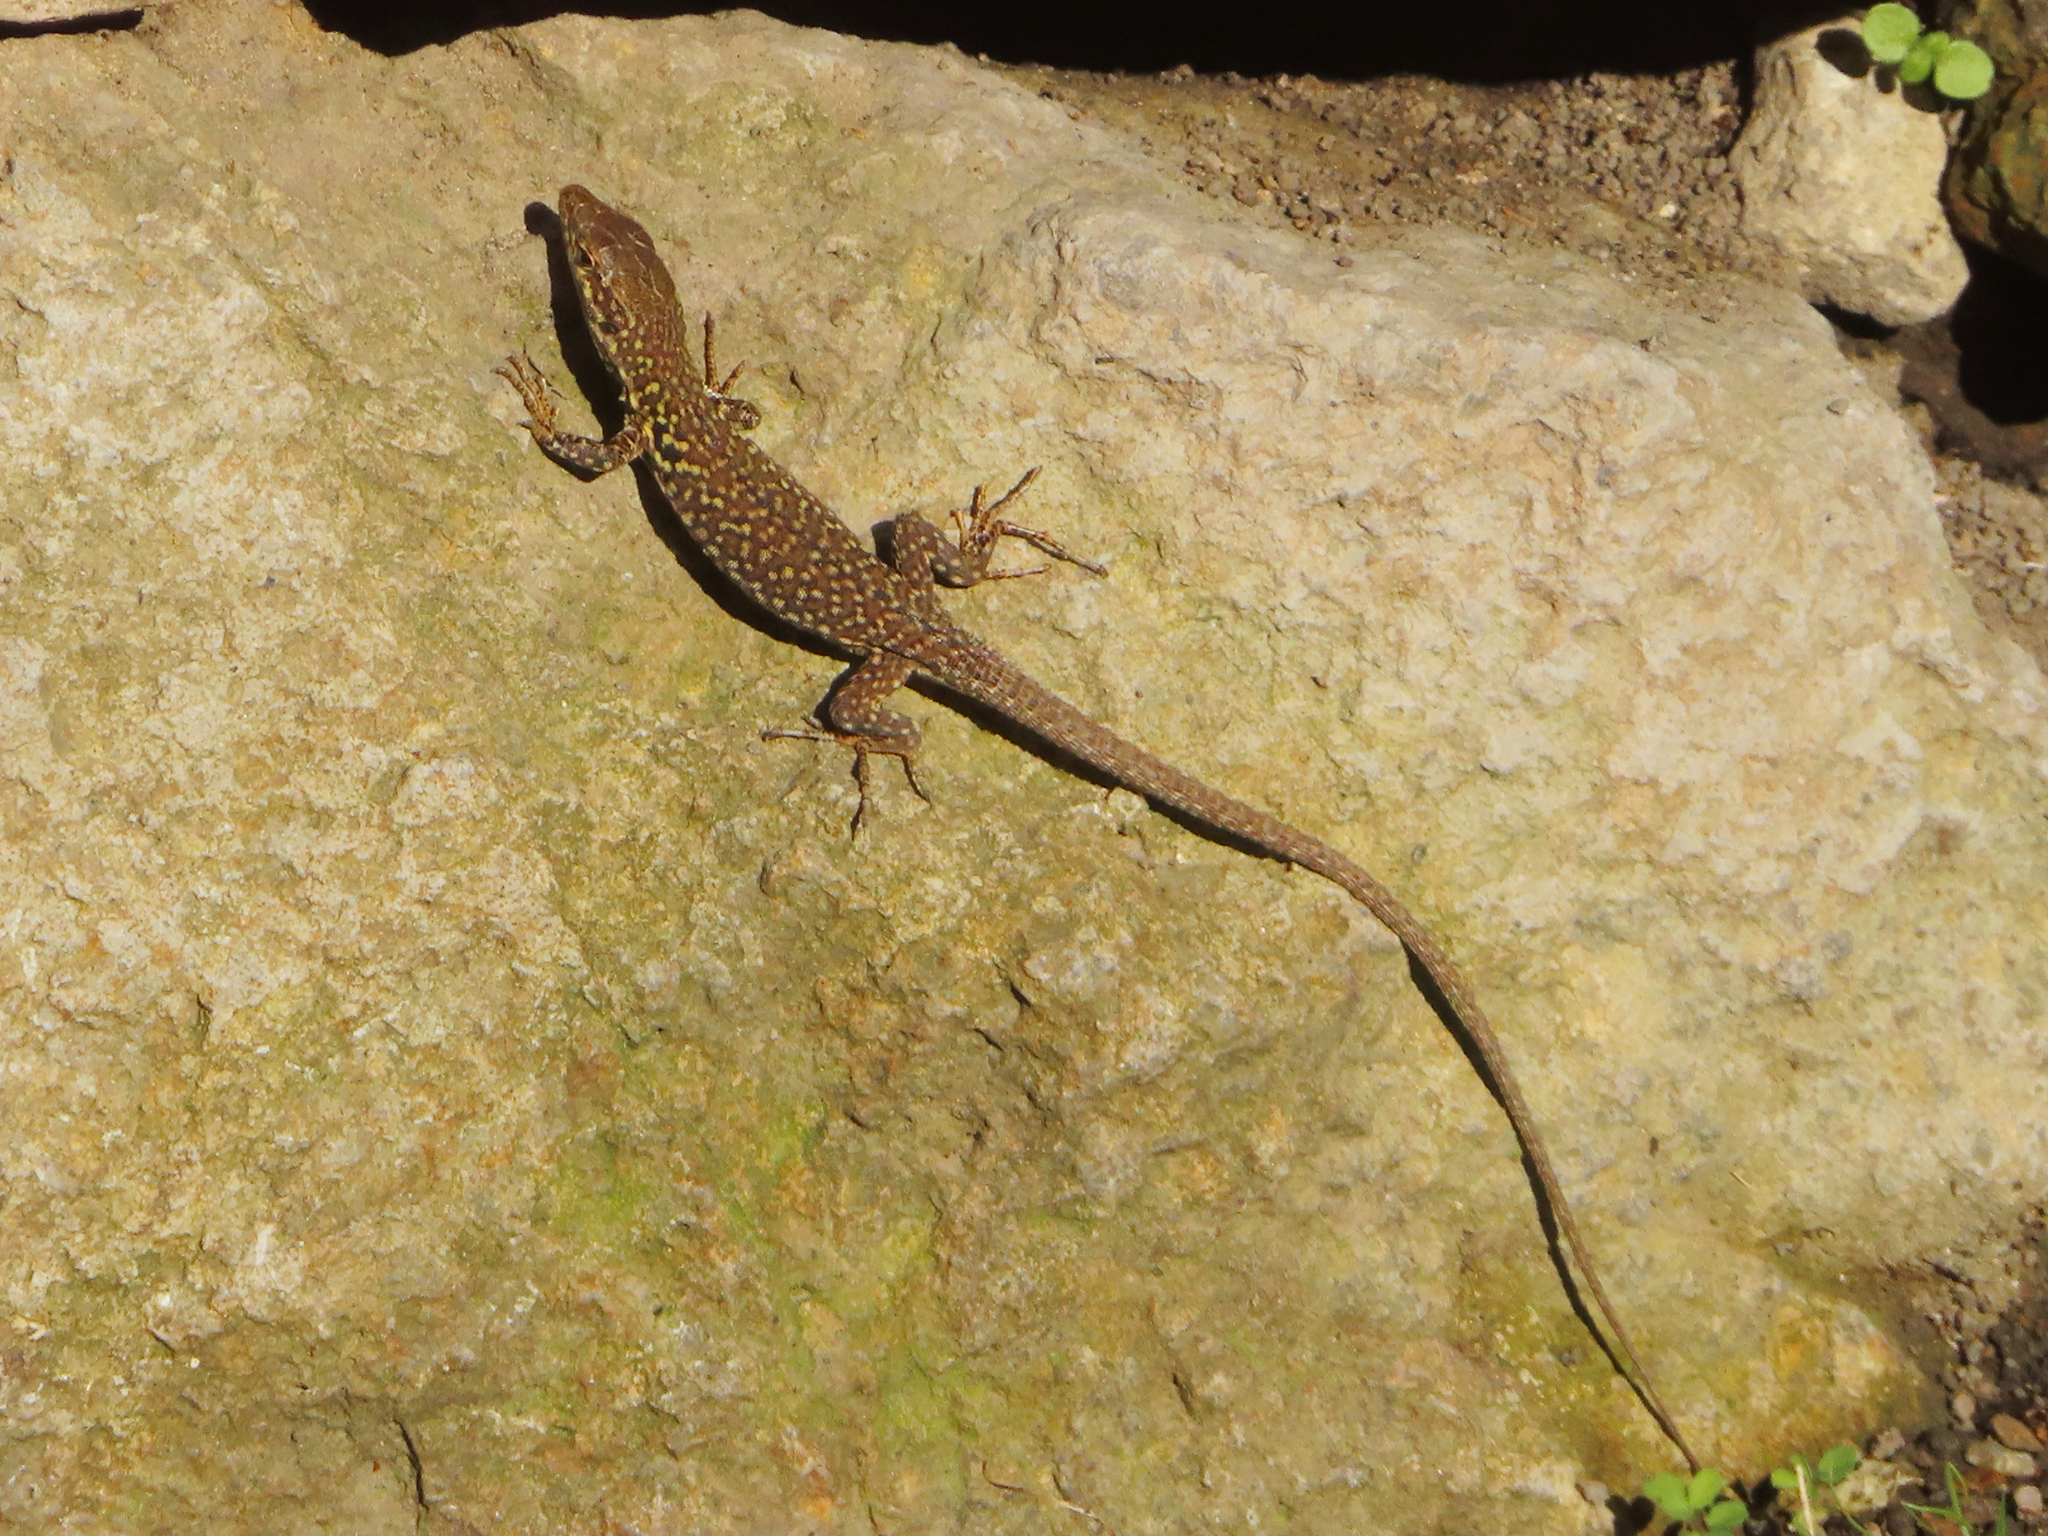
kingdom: Animalia
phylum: Chordata
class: Squamata
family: Lacertidae
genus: Podarcis
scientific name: Podarcis siculus
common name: Italian wall lizard
